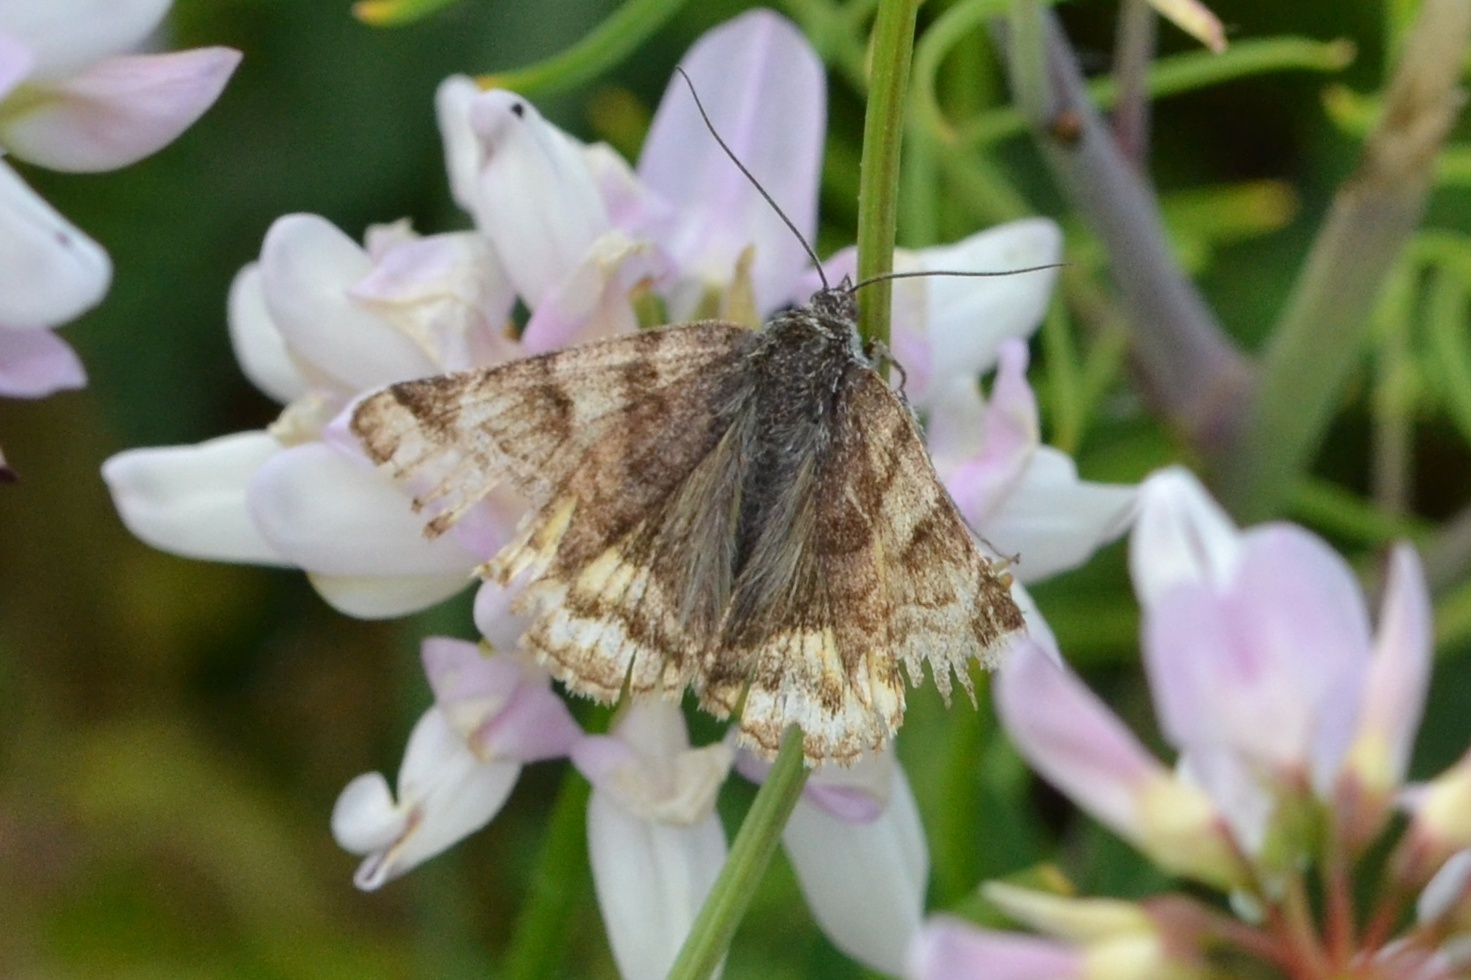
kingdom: Animalia
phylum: Arthropoda
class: Insecta
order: Lepidoptera
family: Erebidae
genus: Euclidia
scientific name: Euclidia glyphica
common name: Burnet companion
